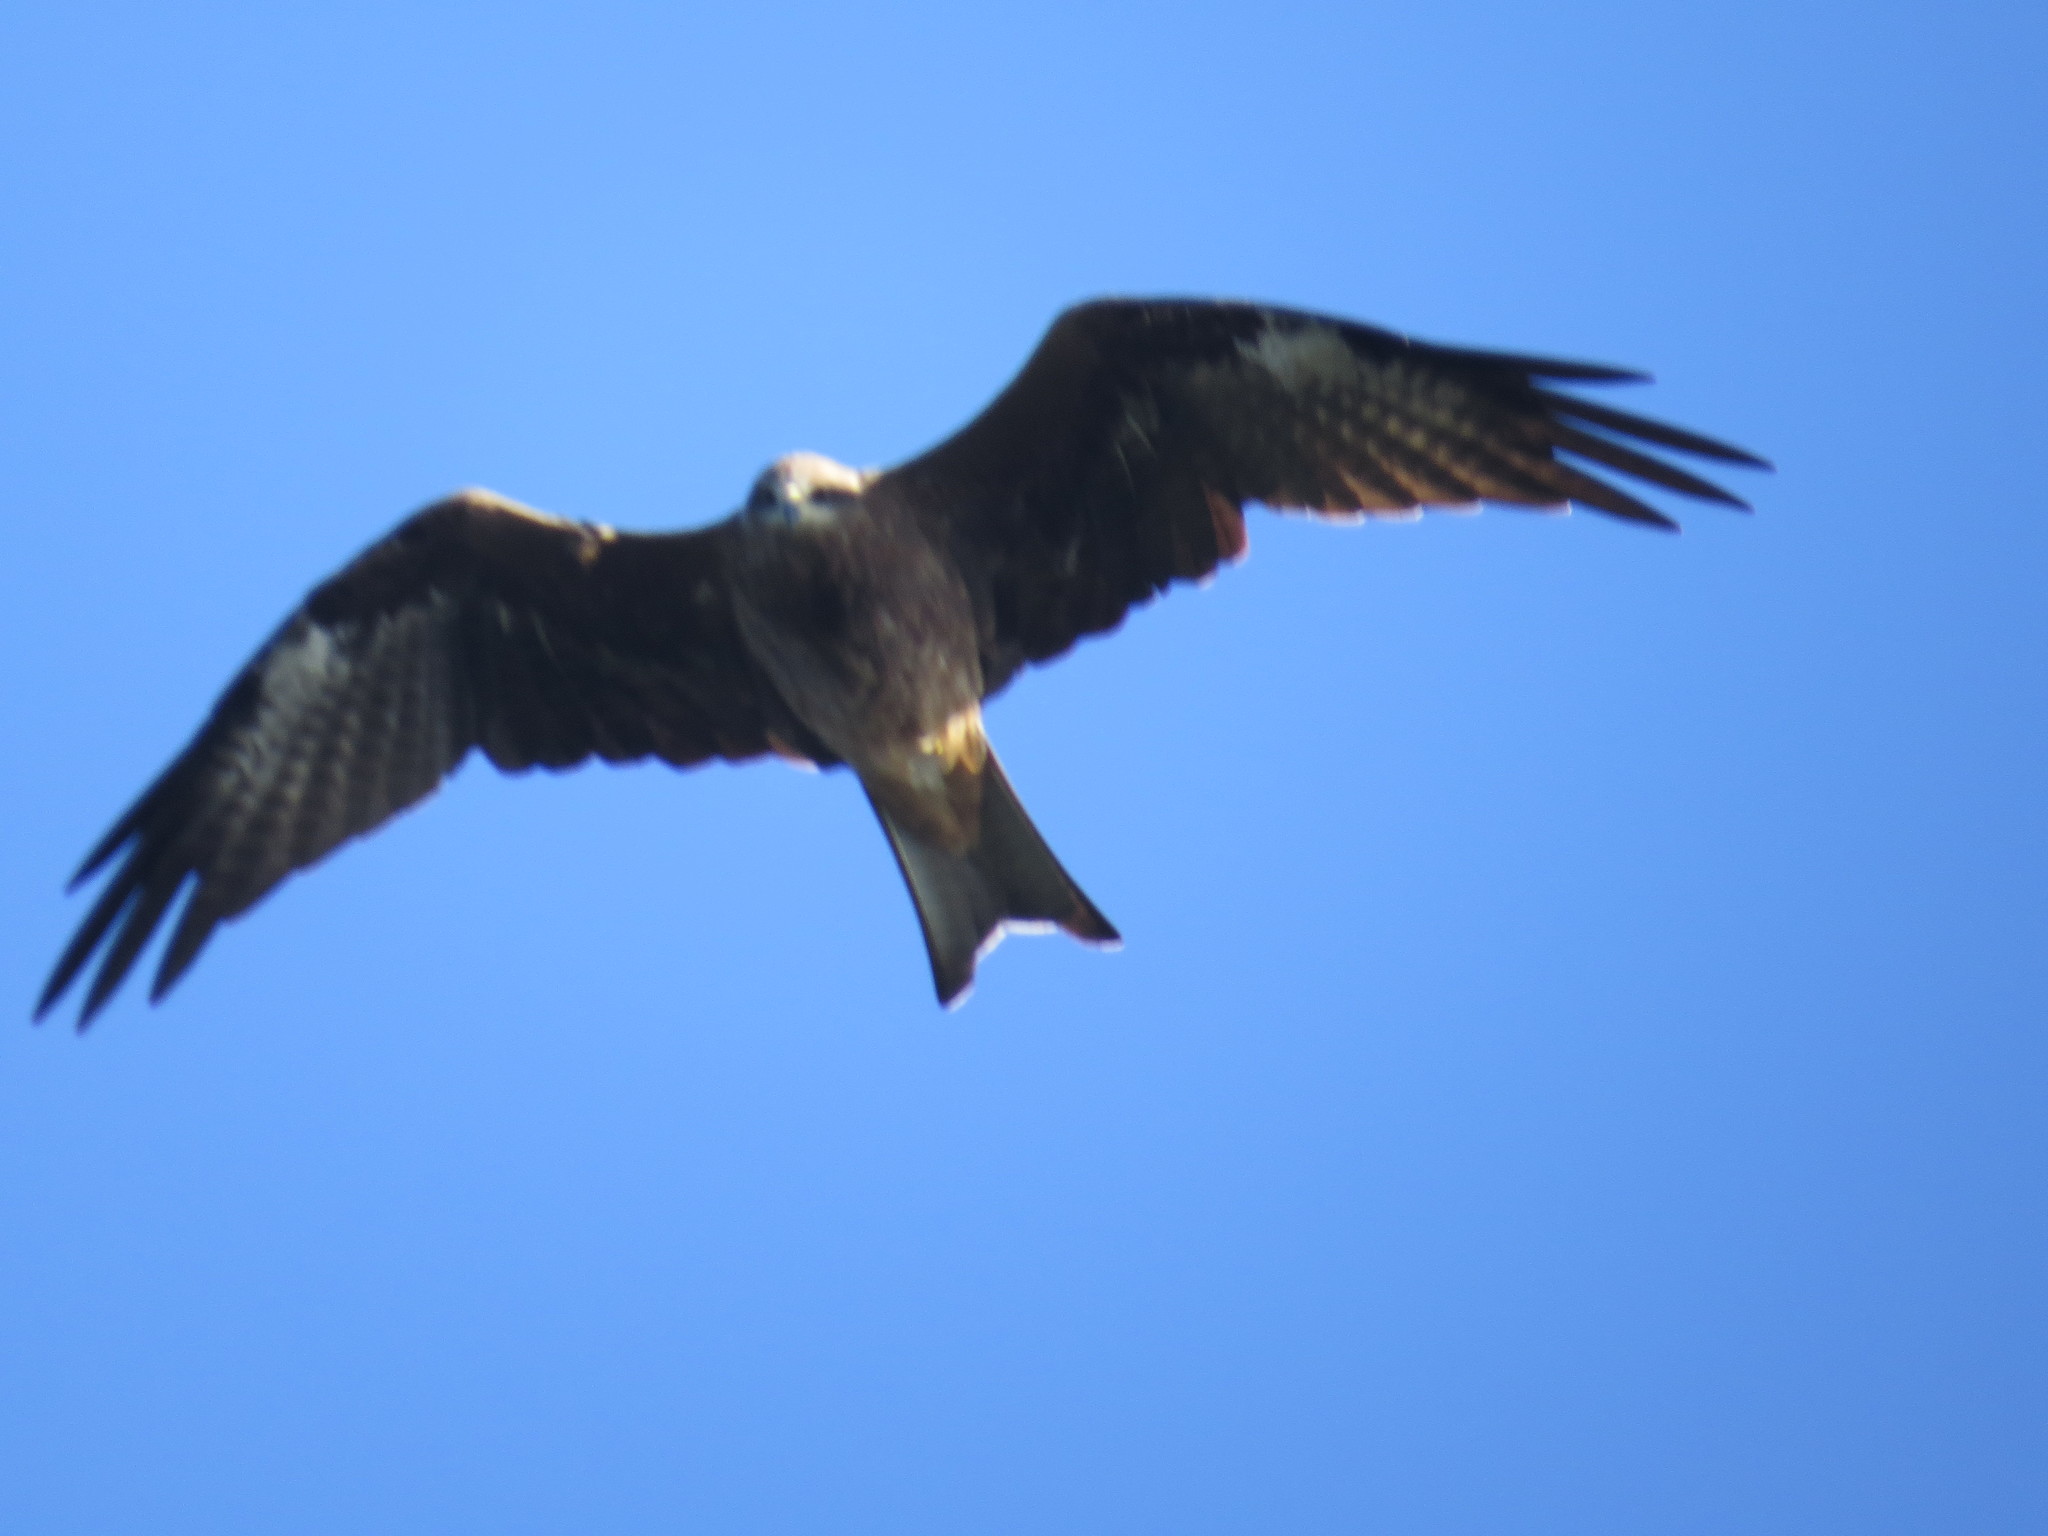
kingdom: Animalia
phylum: Chordata
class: Aves
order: Accipitriformes
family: Accipitridae
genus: Milvus
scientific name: Milvus migrans
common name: Black kite
